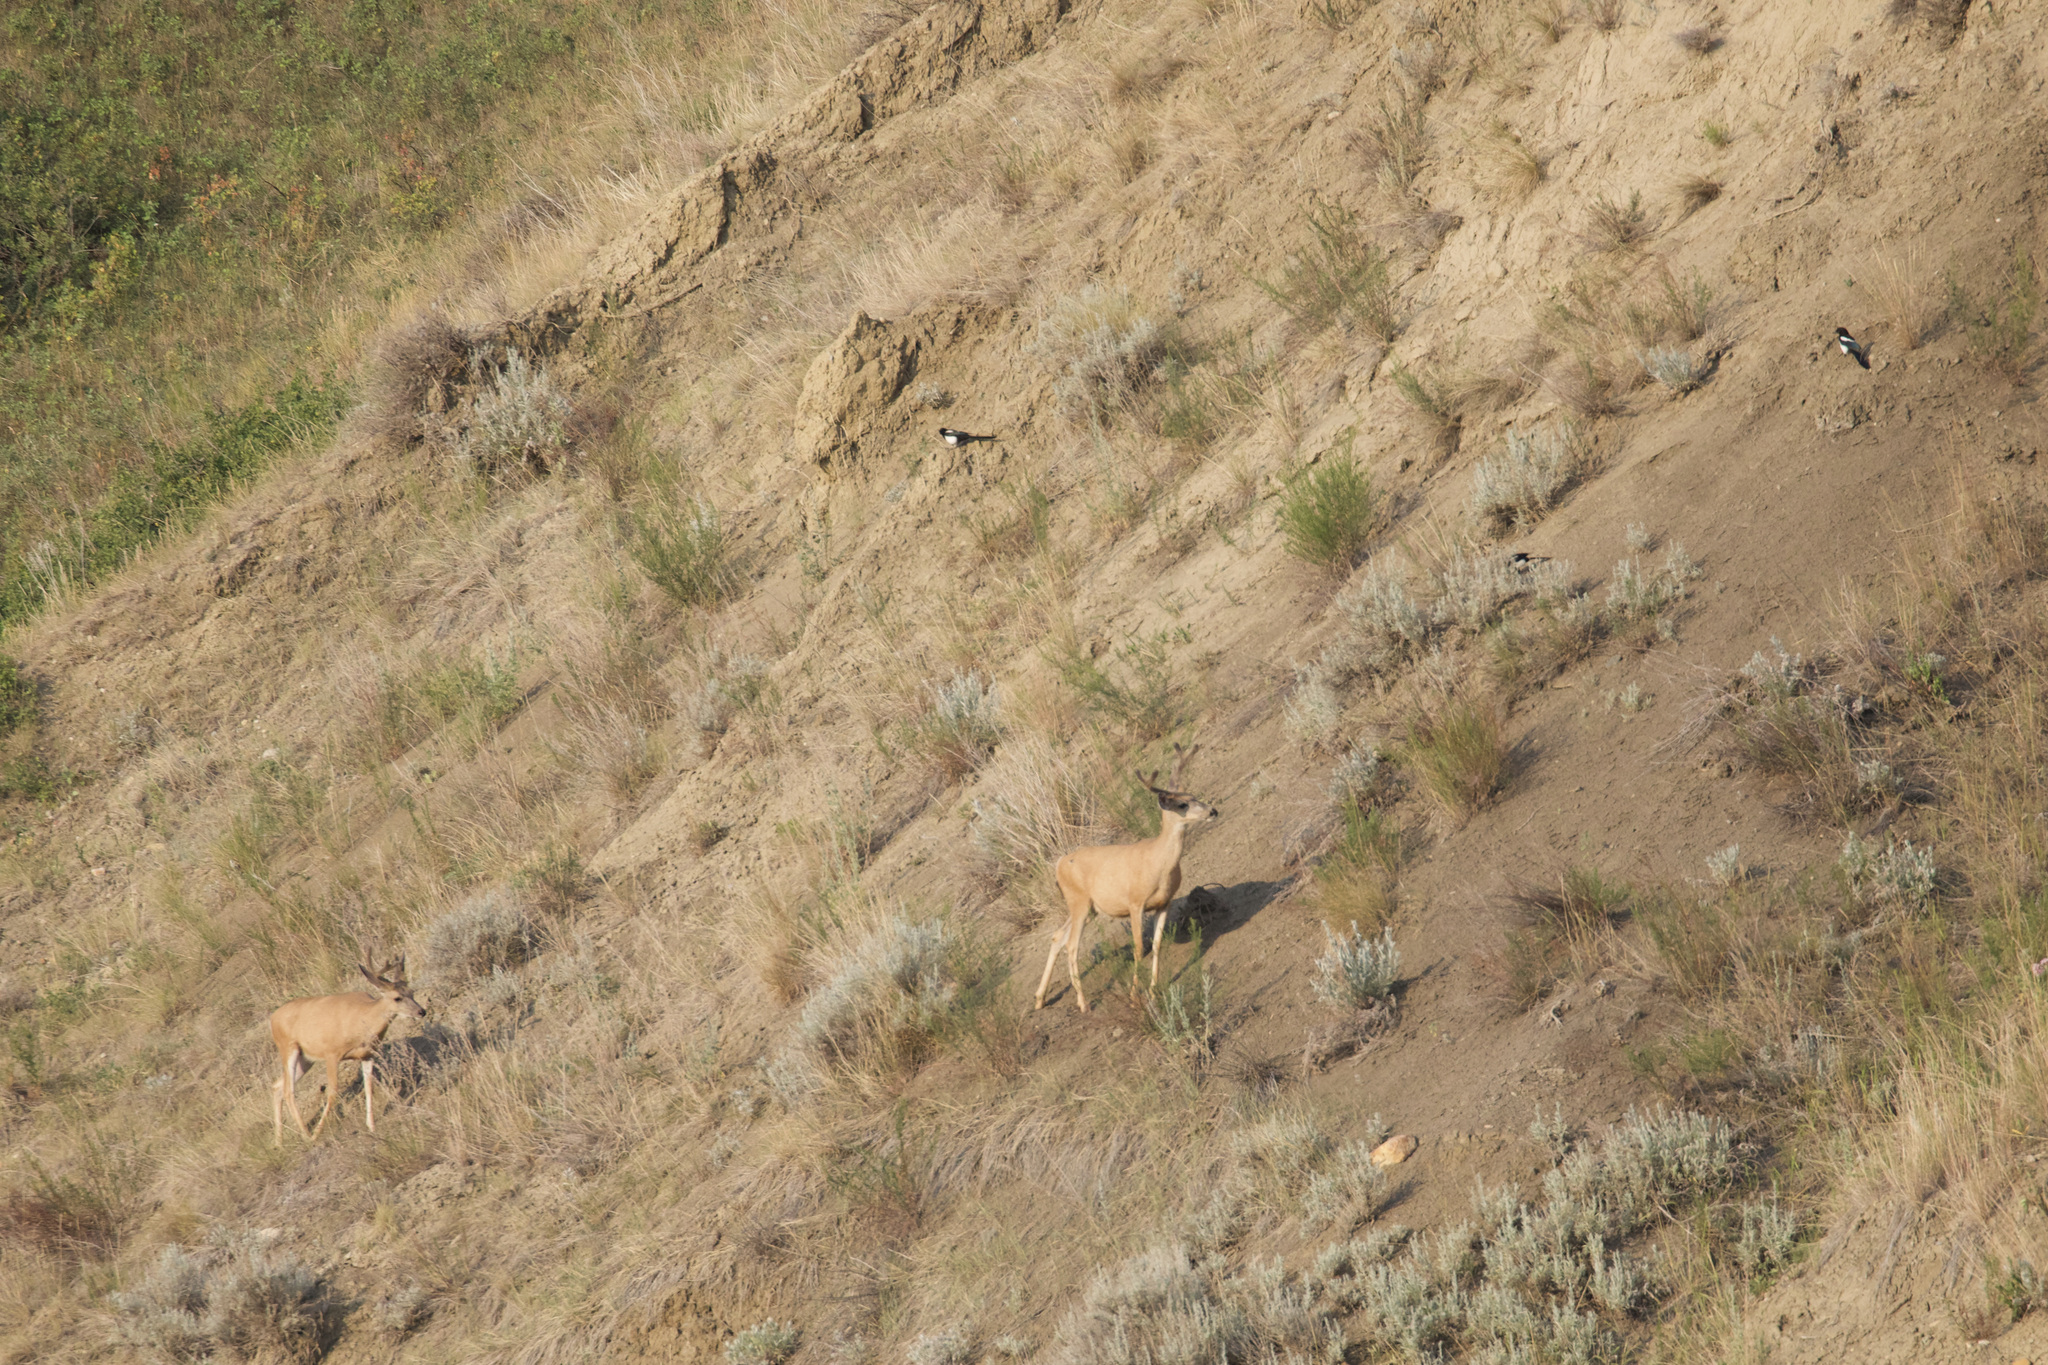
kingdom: Animalia
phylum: Chordata
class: Aves
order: Passeriformes
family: Corvidae
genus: Pica
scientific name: Pica hudsonia
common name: Black-billed magpie
